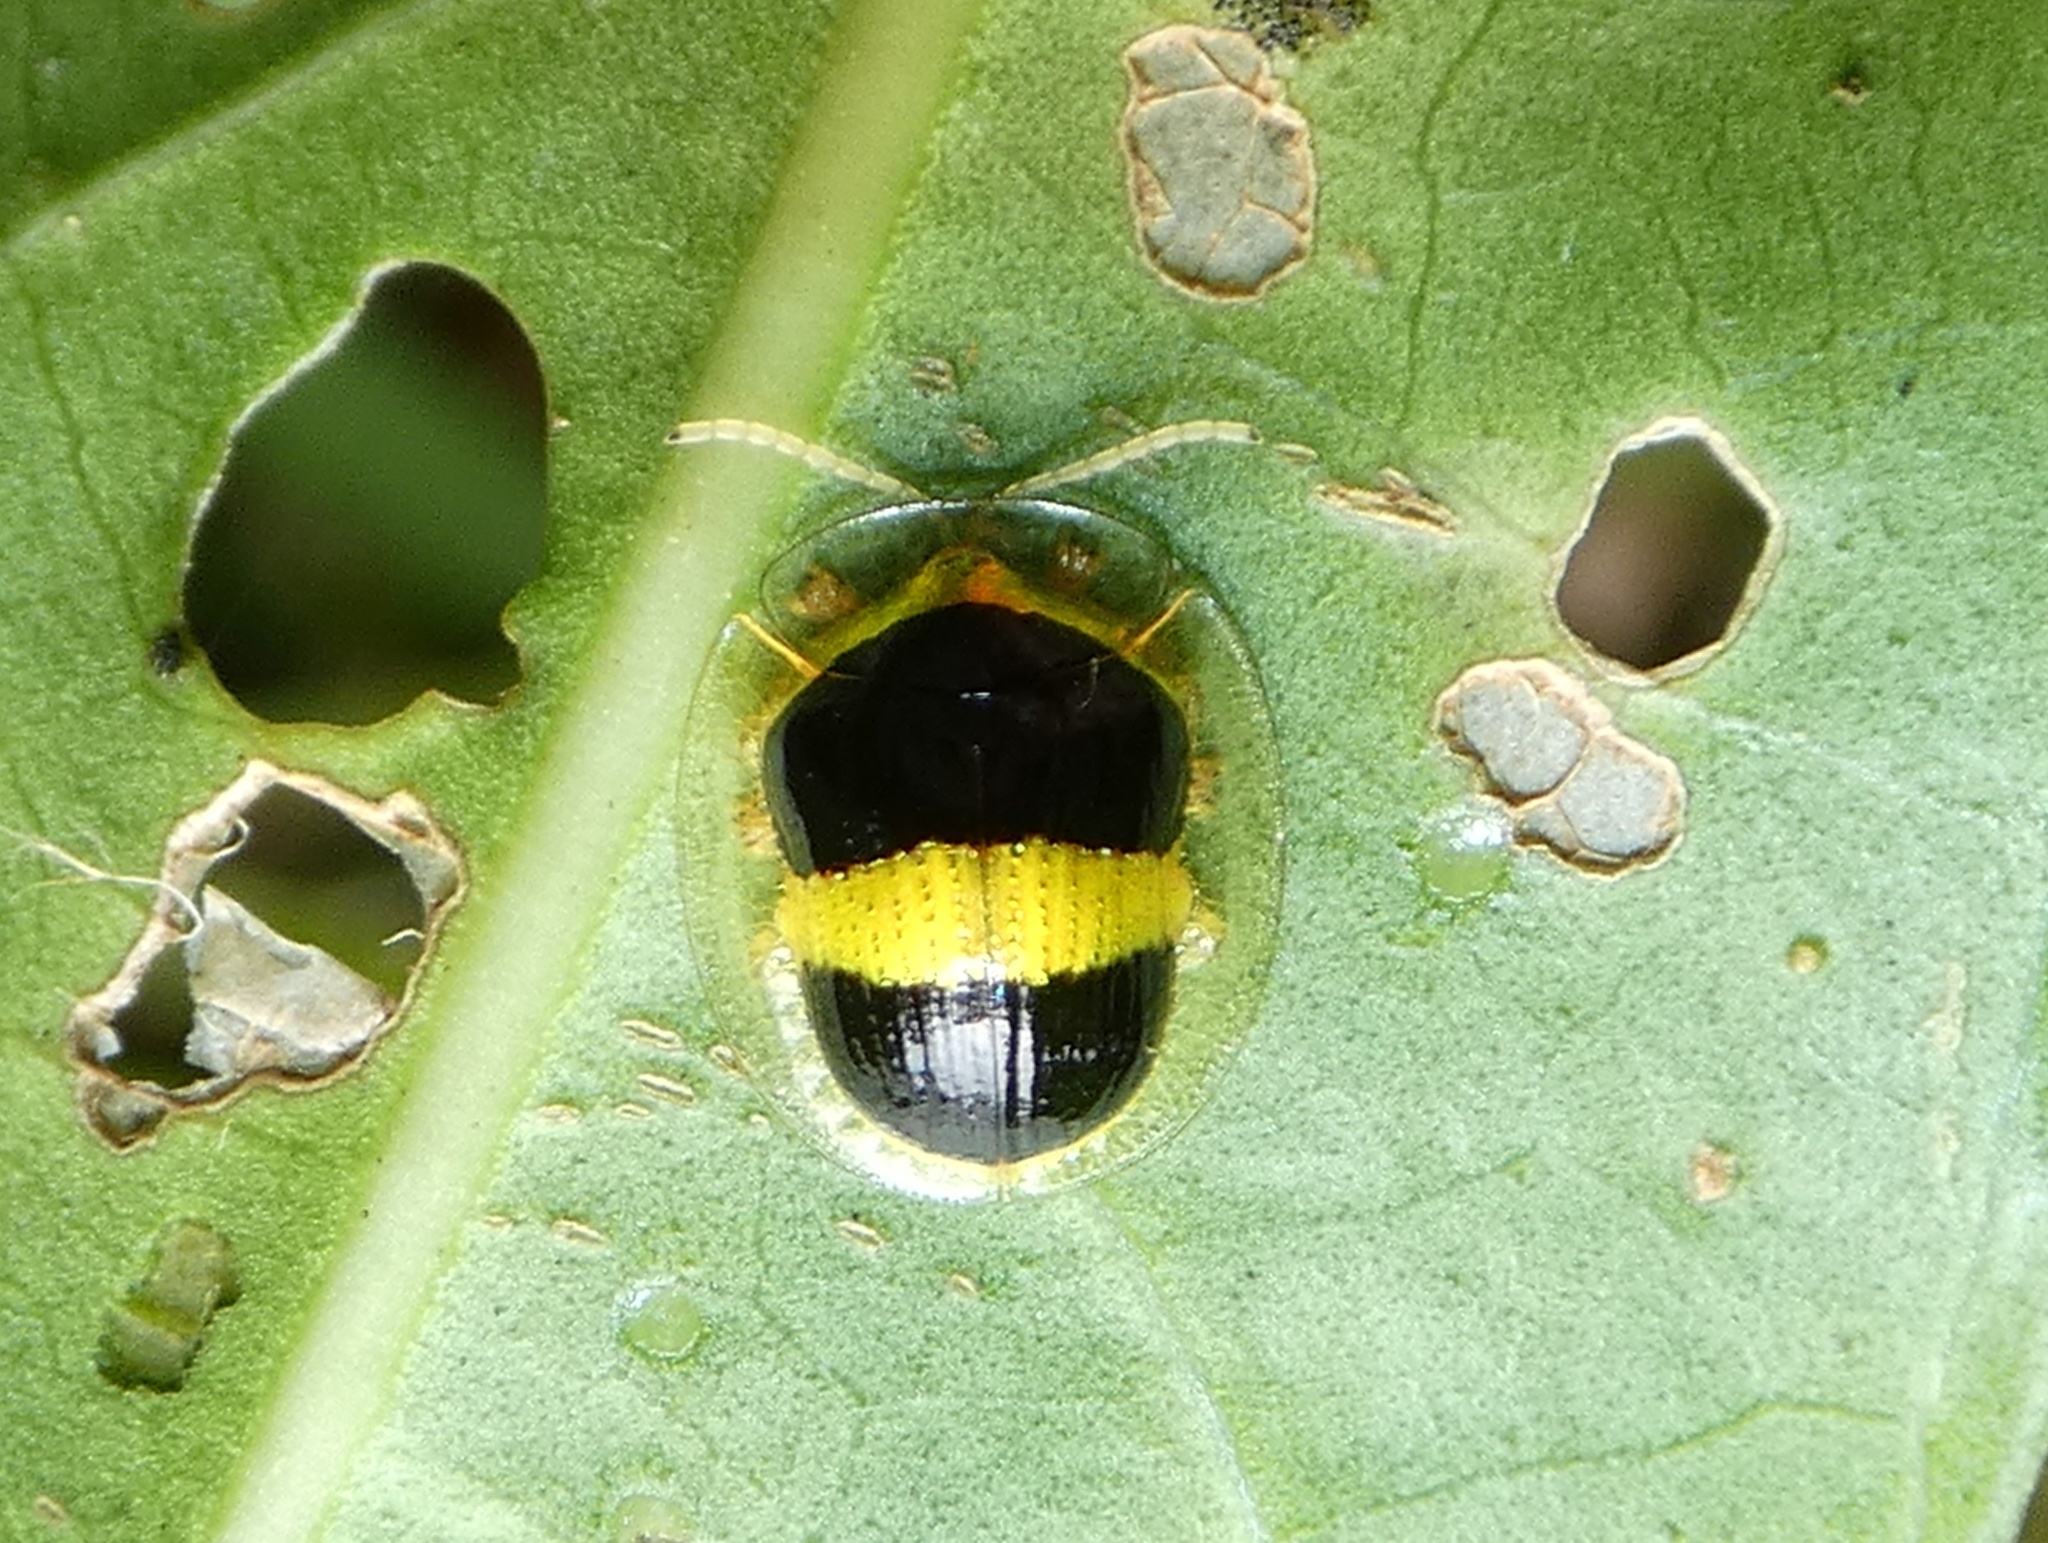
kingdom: Animalia
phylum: Arthropoda
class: Insecta
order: Coleoptera
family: Chrysomelidae
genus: Charidotis
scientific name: Charidotis leprieuri
